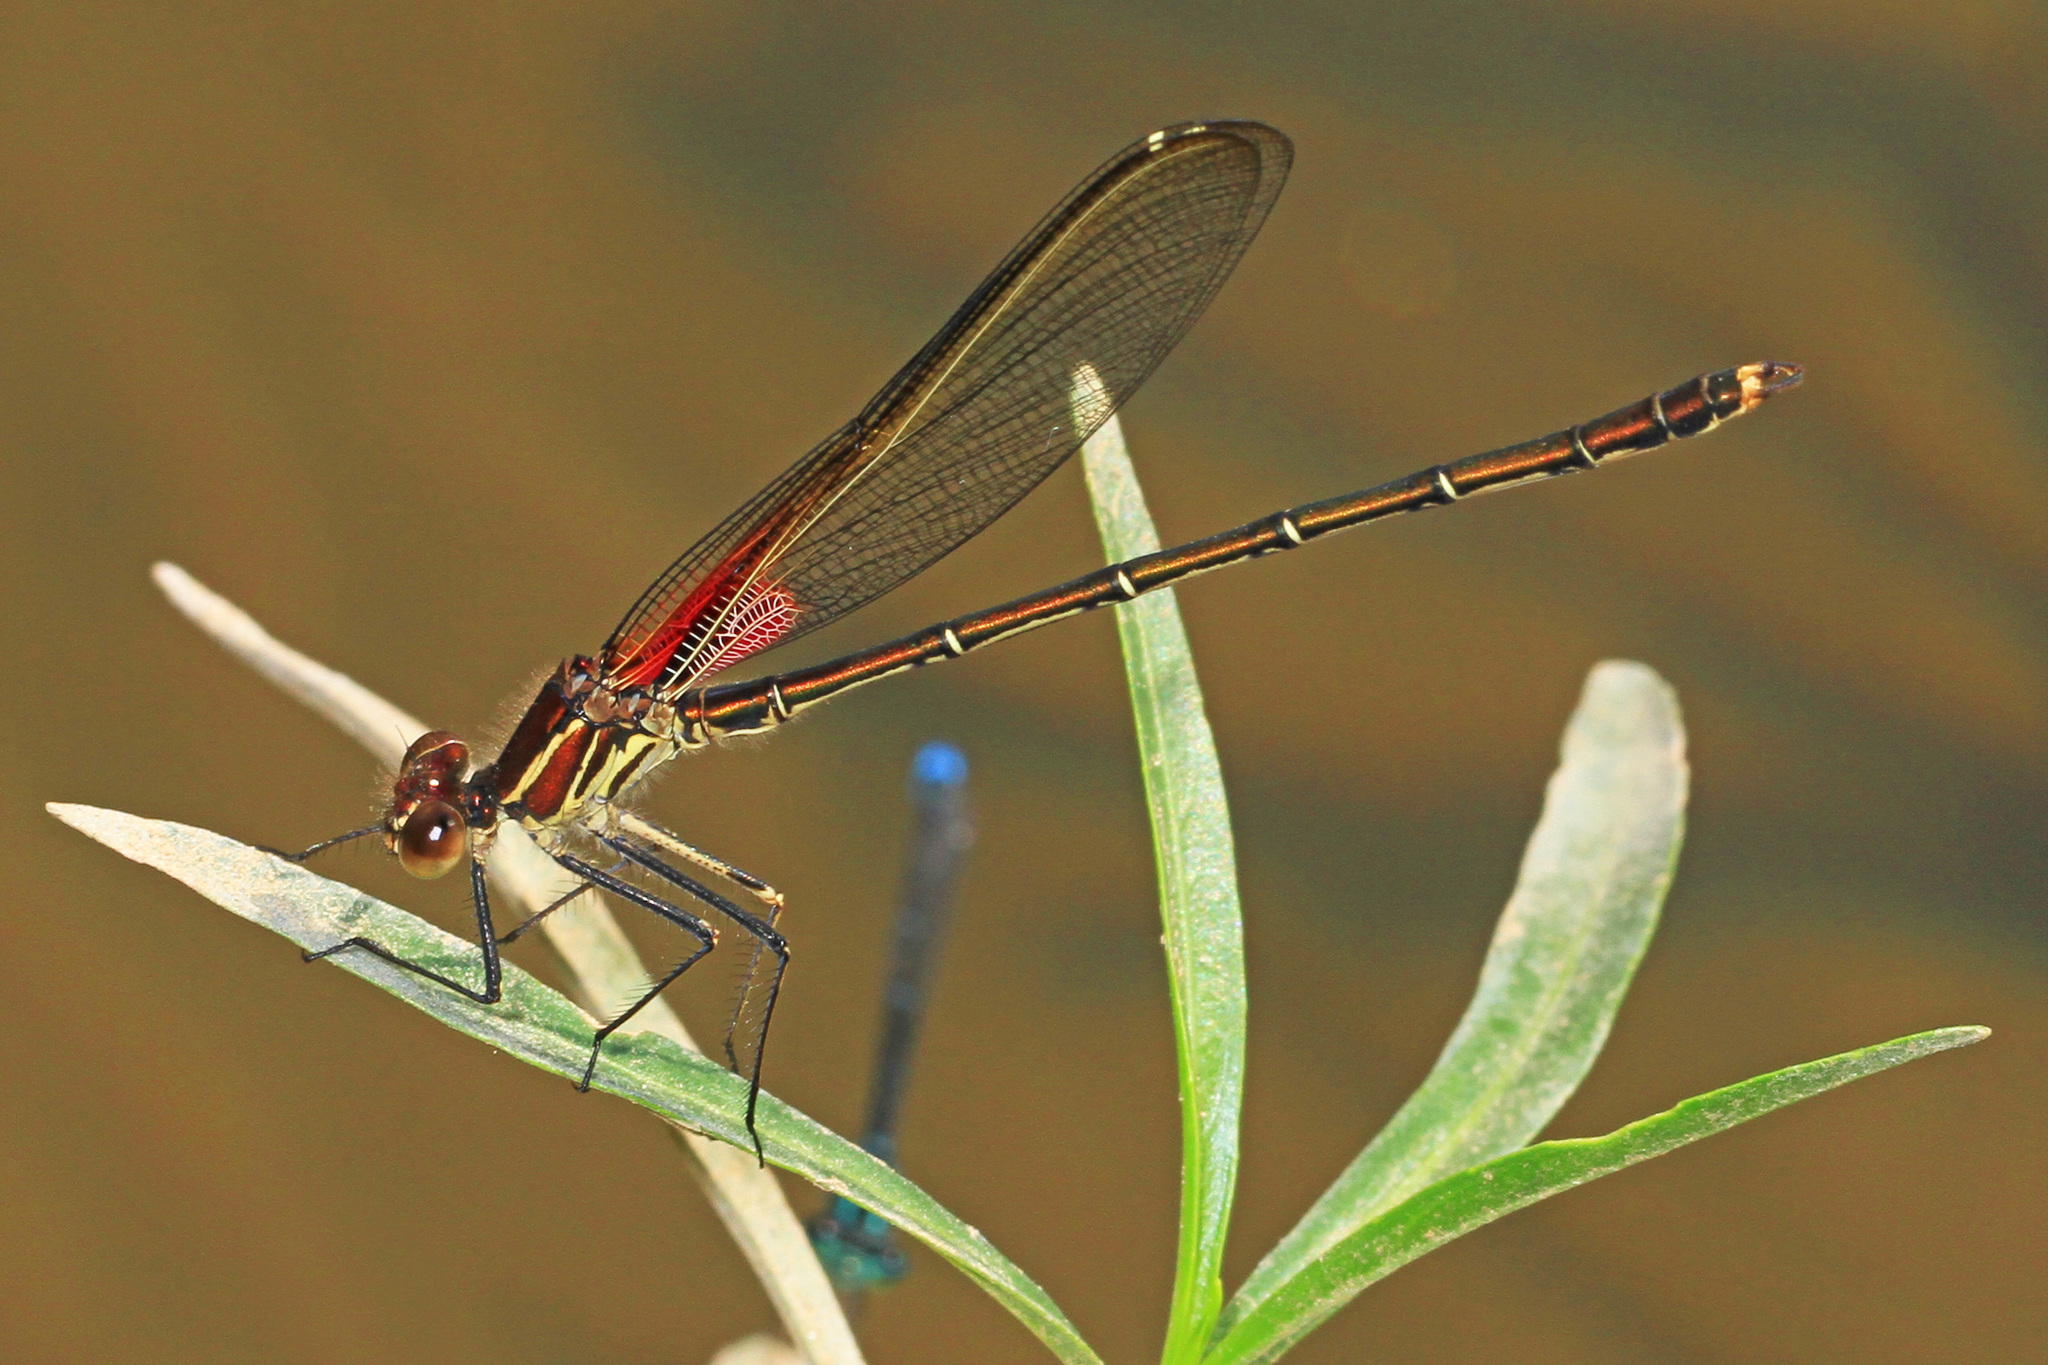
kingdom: Animalia
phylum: Arthropoda
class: Insecta
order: Odonata
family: Calopterygidae
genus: Hetaerina
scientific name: Hetaerina americana
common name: American rubyspot
